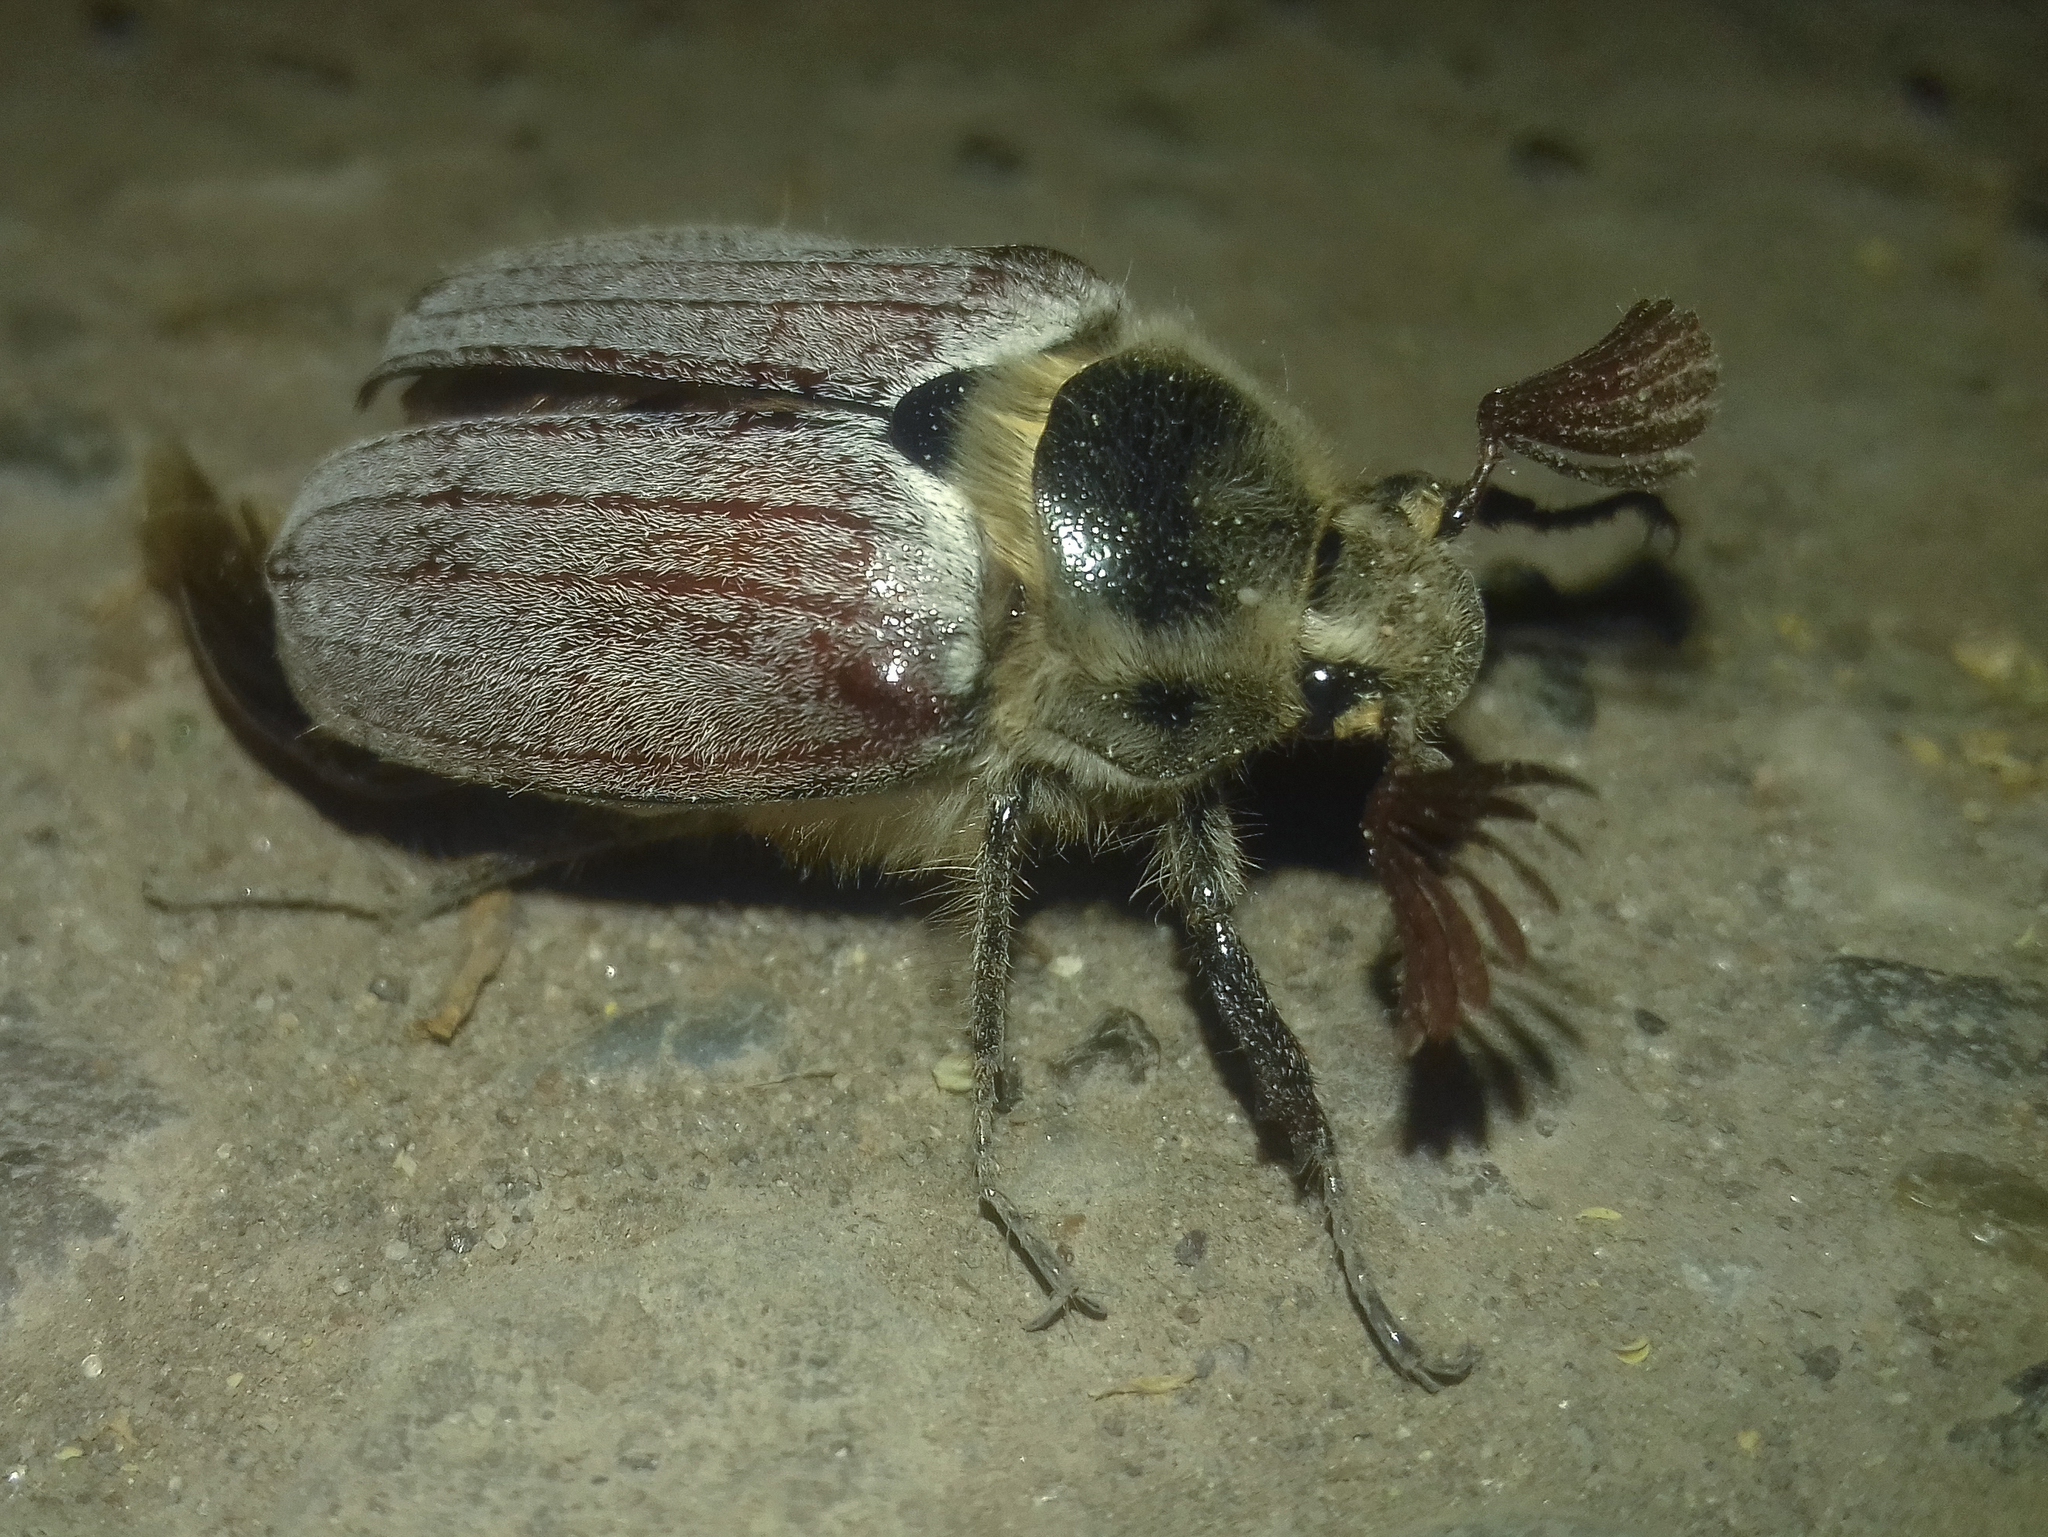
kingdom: Animalia
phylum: Arthropoda
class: Insecta
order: Coleoptera
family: Scarabaeidae
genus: Melolontha
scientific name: Melolontha hippocastani
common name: Chestnut cockchafer
